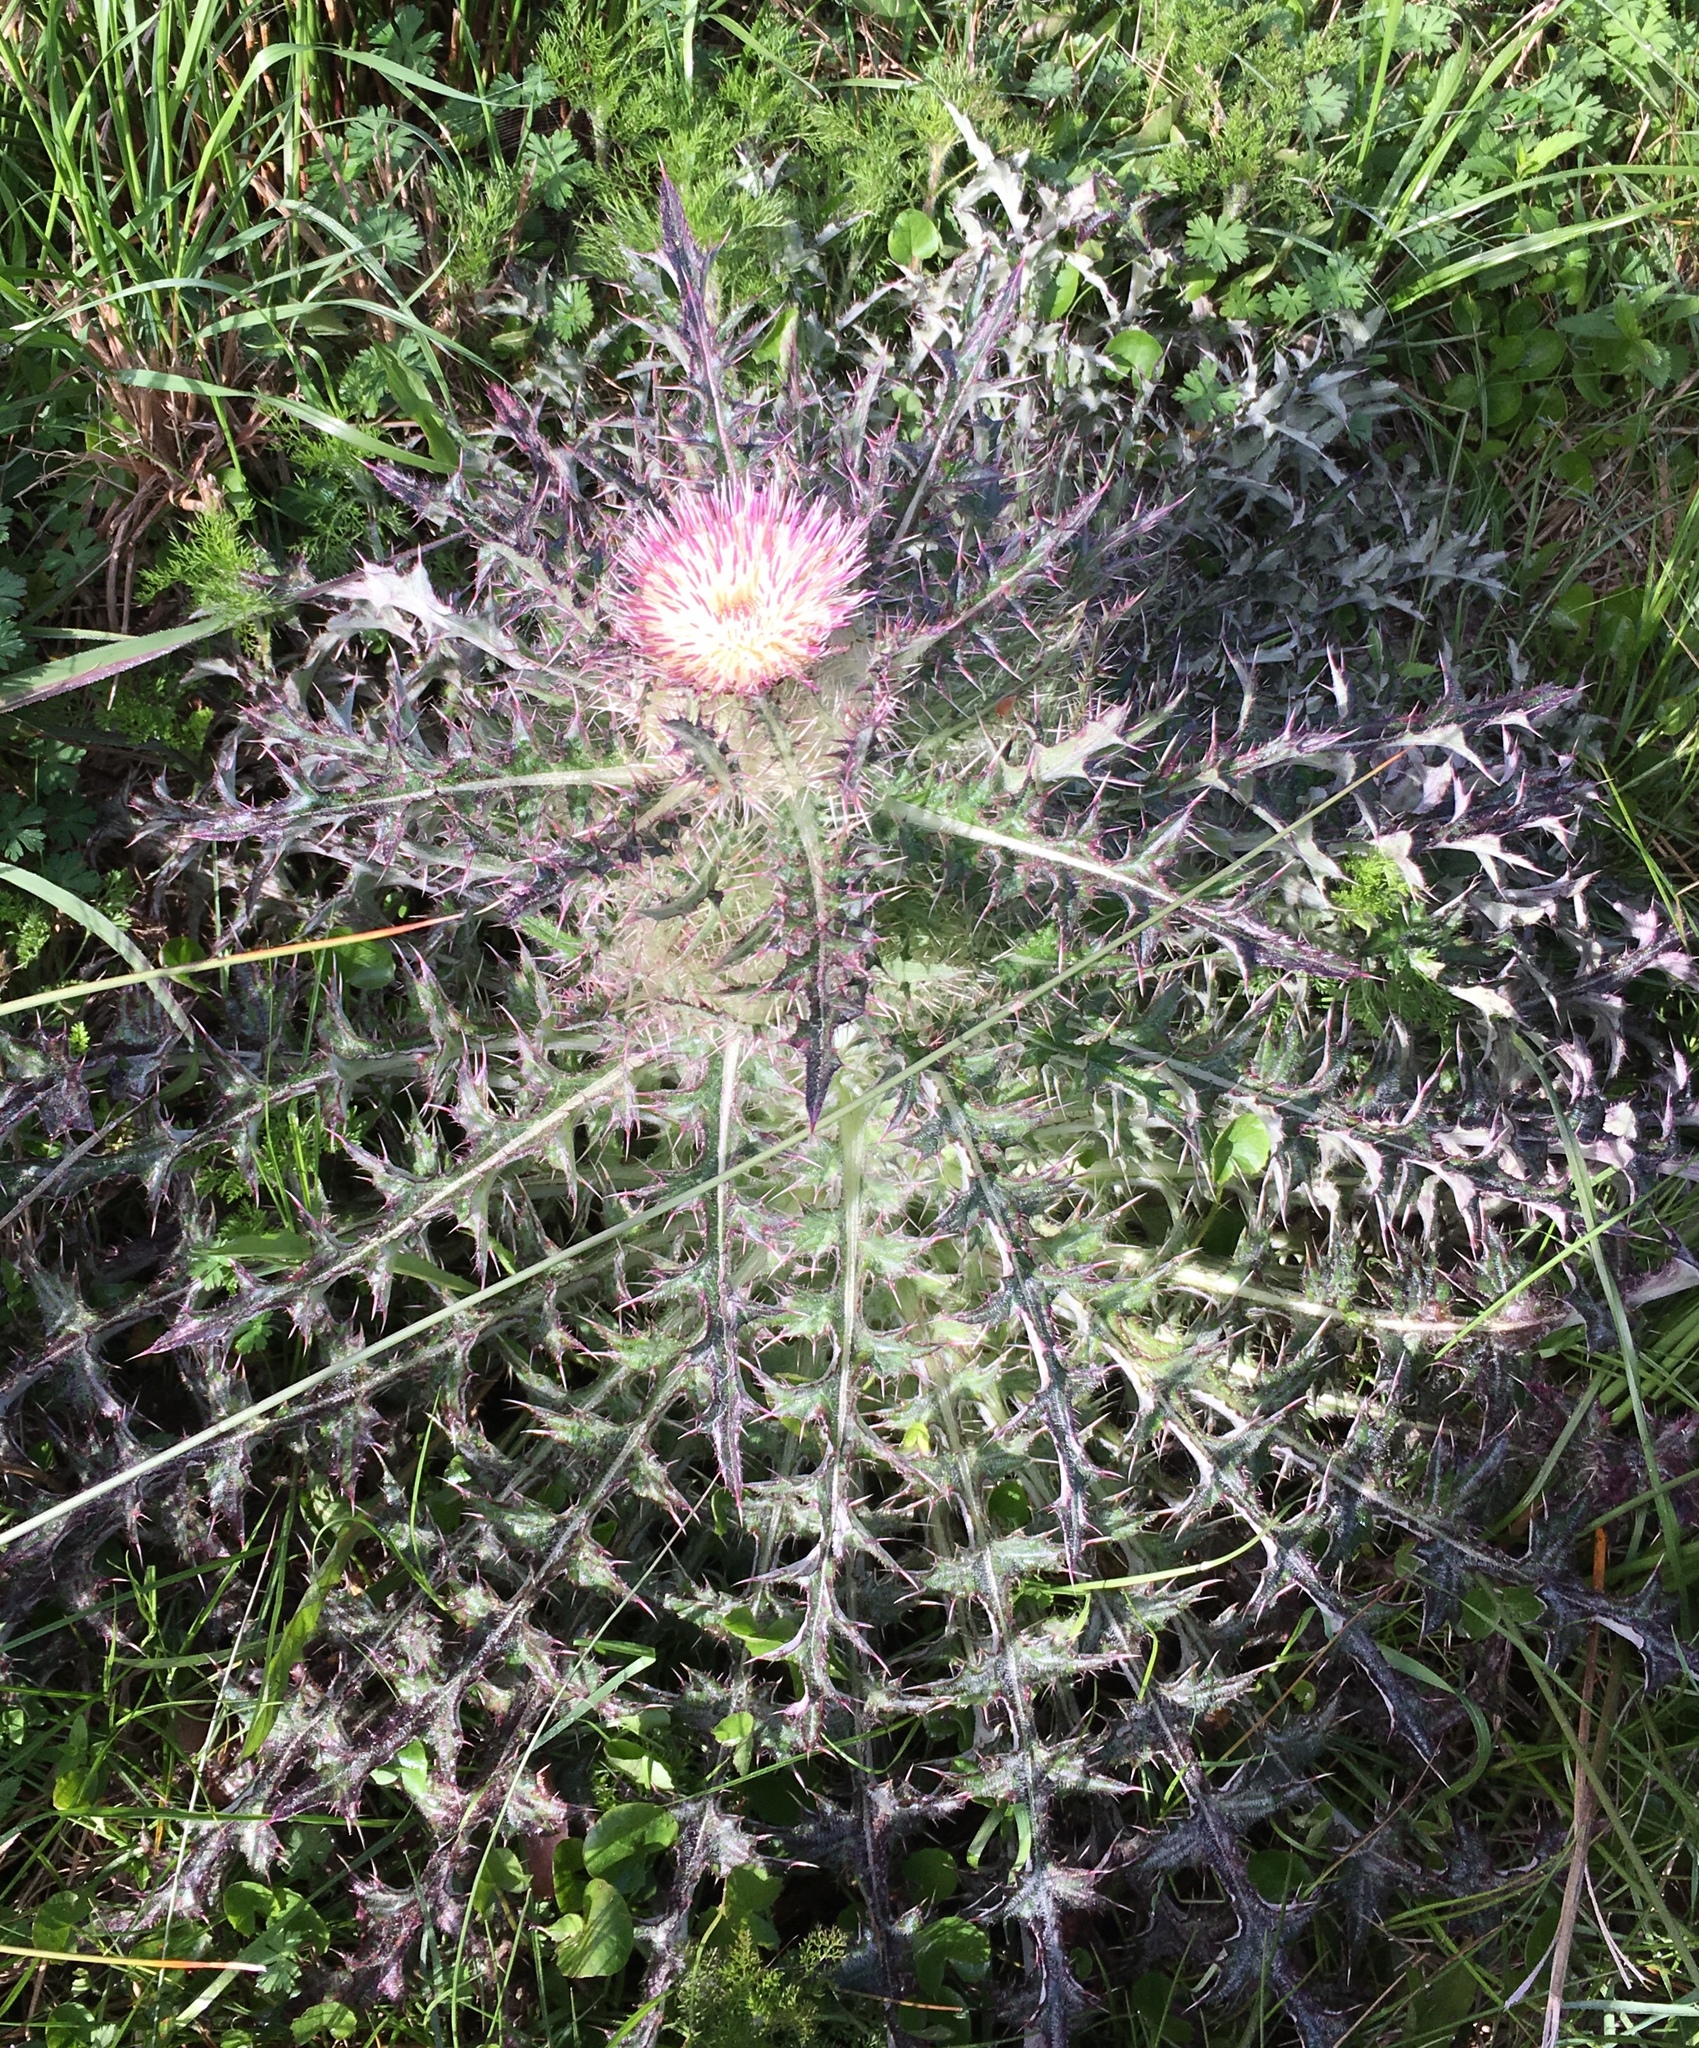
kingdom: Plantae
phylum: Tracheophyta
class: Magnoliopsida
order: Asterales
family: Asteraceae
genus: Cirsium
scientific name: Cirsium horridulum
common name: Bristly thistle
